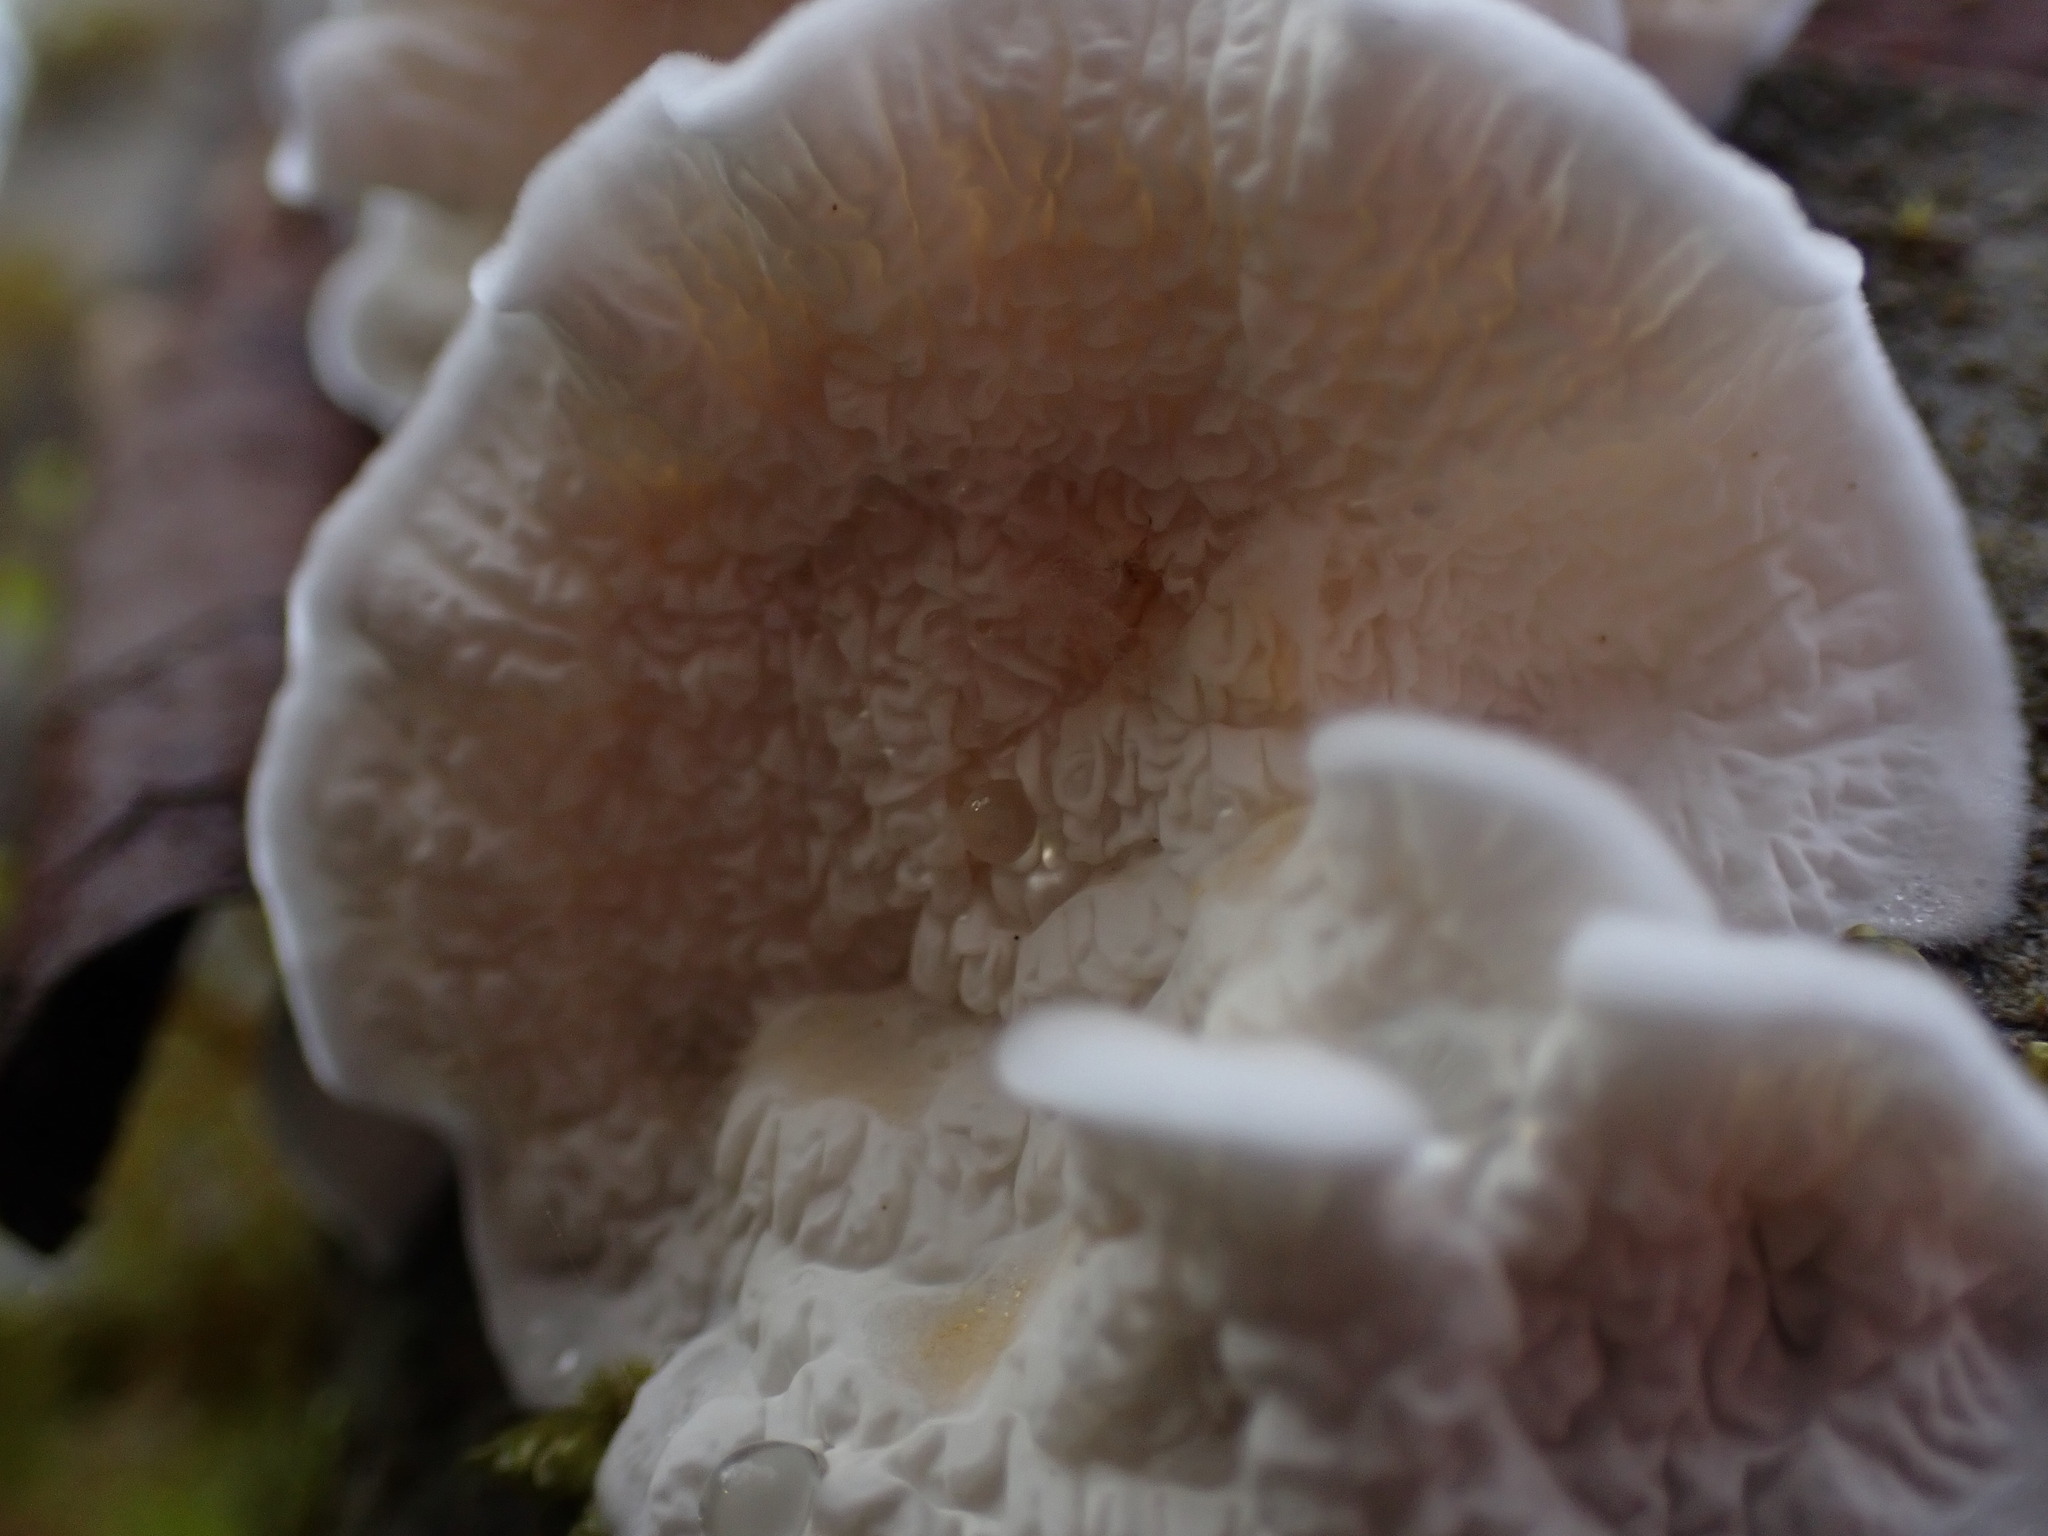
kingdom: Fungi
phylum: Basidiomycota
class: Agaricomycetes
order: Agaricales
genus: Plicatura
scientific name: Plicatura nivea
